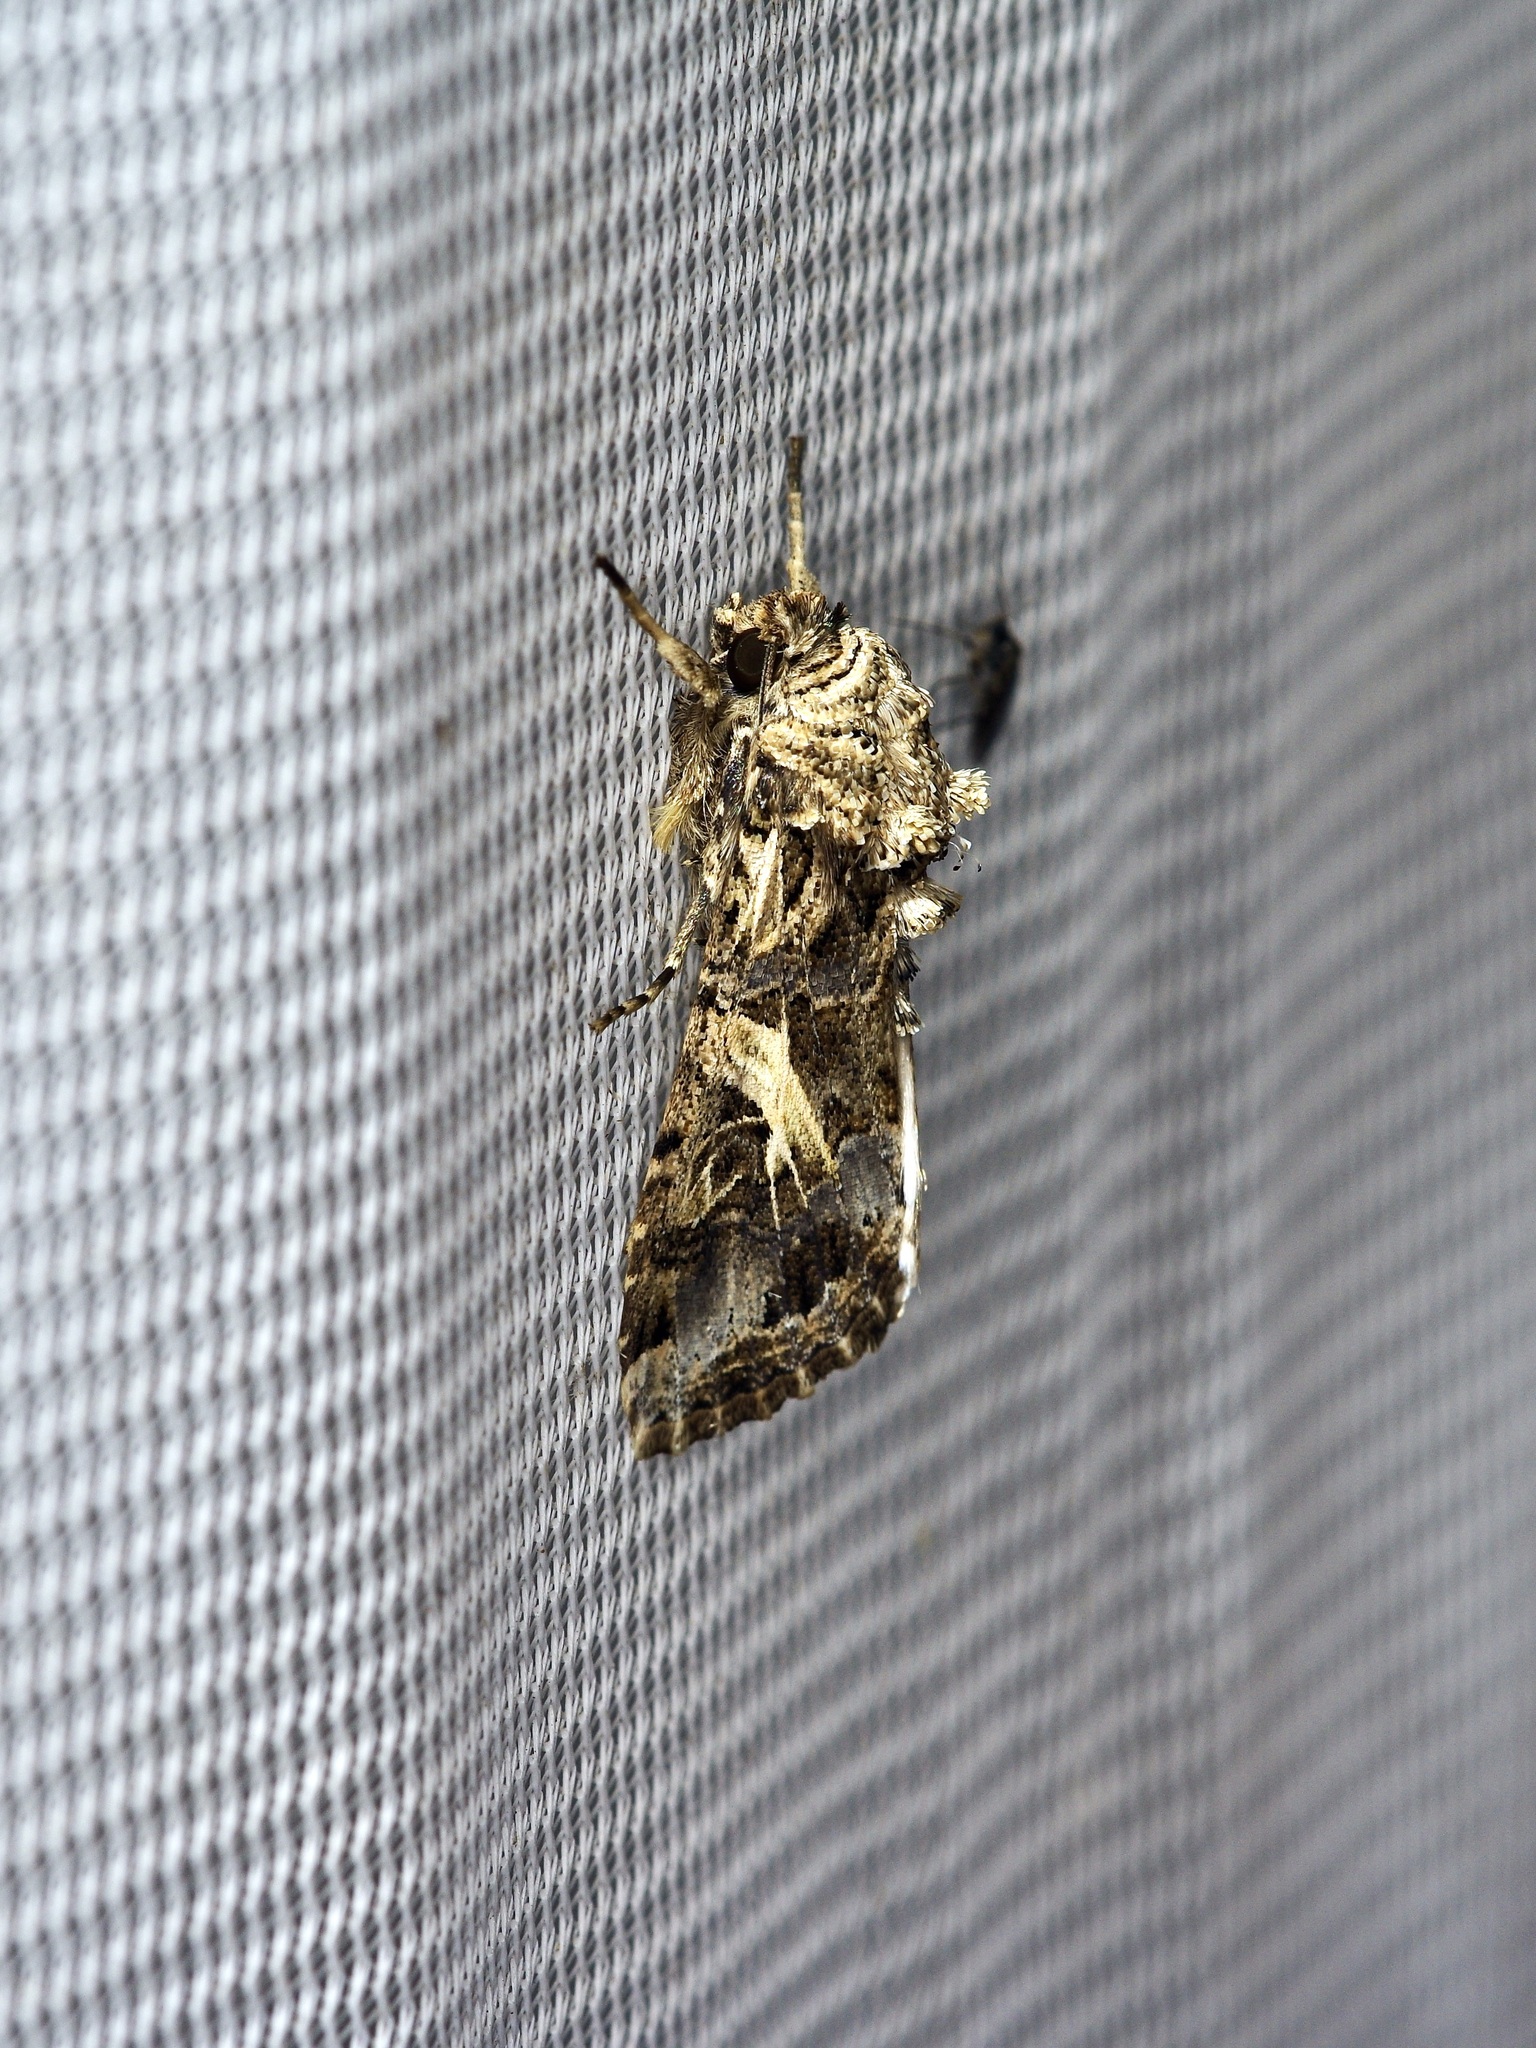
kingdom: Animalia
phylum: Arthropoda
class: Insecta
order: Lepidoptera
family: Noctuidae
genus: Spodoptera
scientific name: Spodoptera ornithogalli
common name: Yellow-striped armyworm
